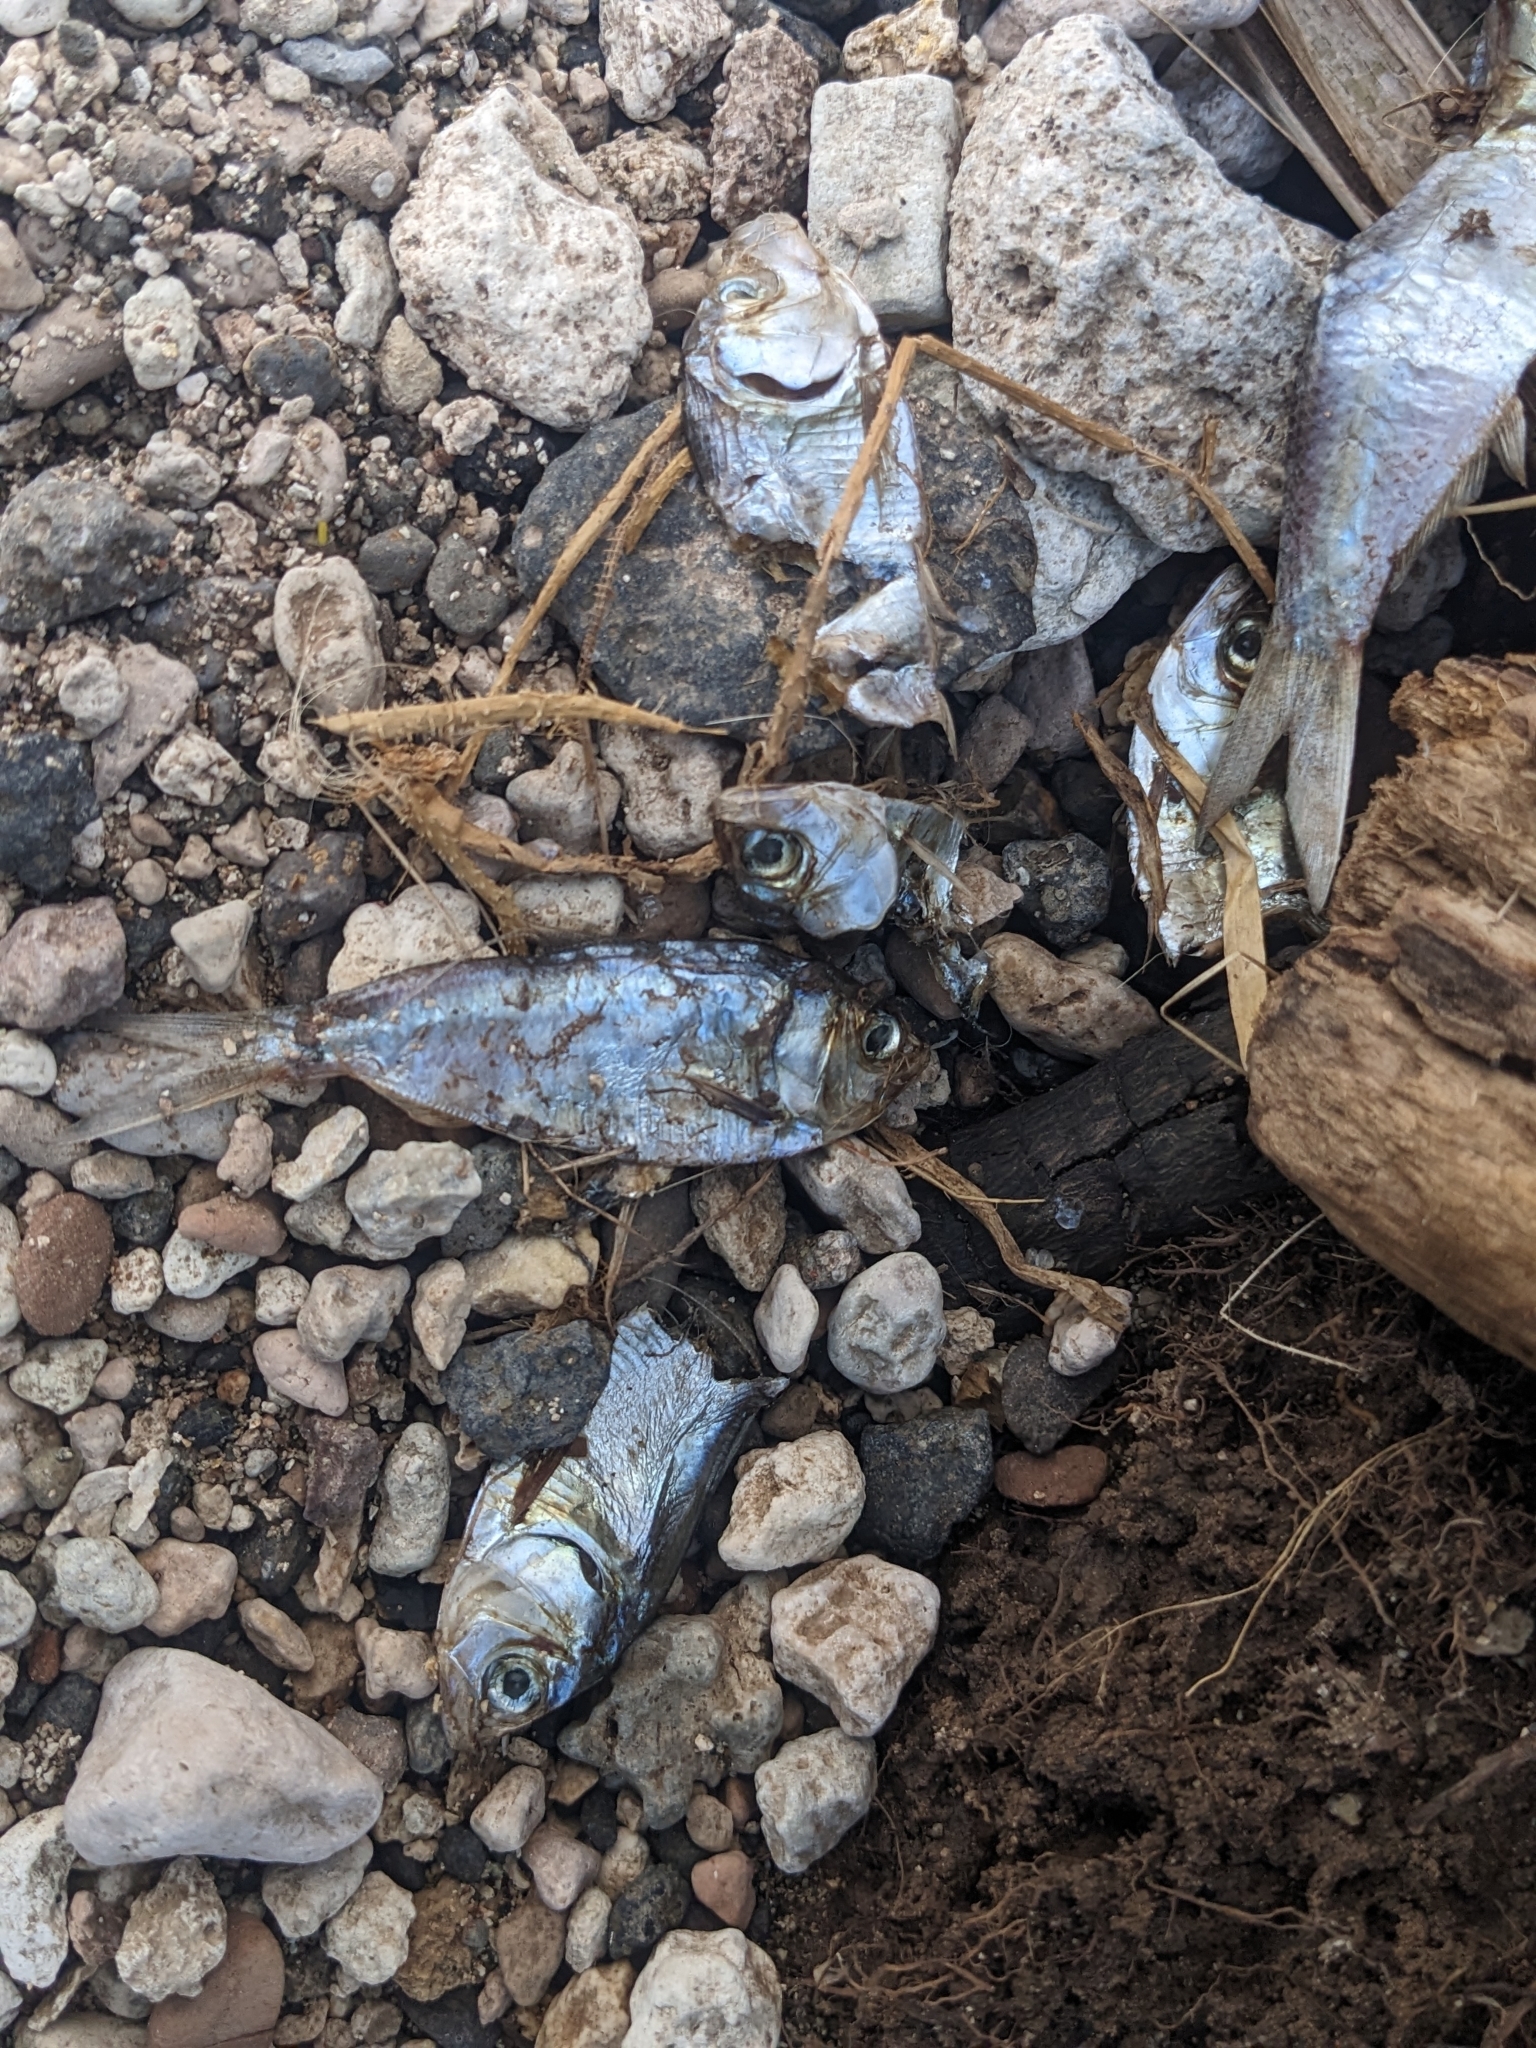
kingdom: Animalia
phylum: Chordata
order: Clupeiformes
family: Clupeidae
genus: Dorosoma
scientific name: Dorosoma petenense
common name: Threadfin shad
